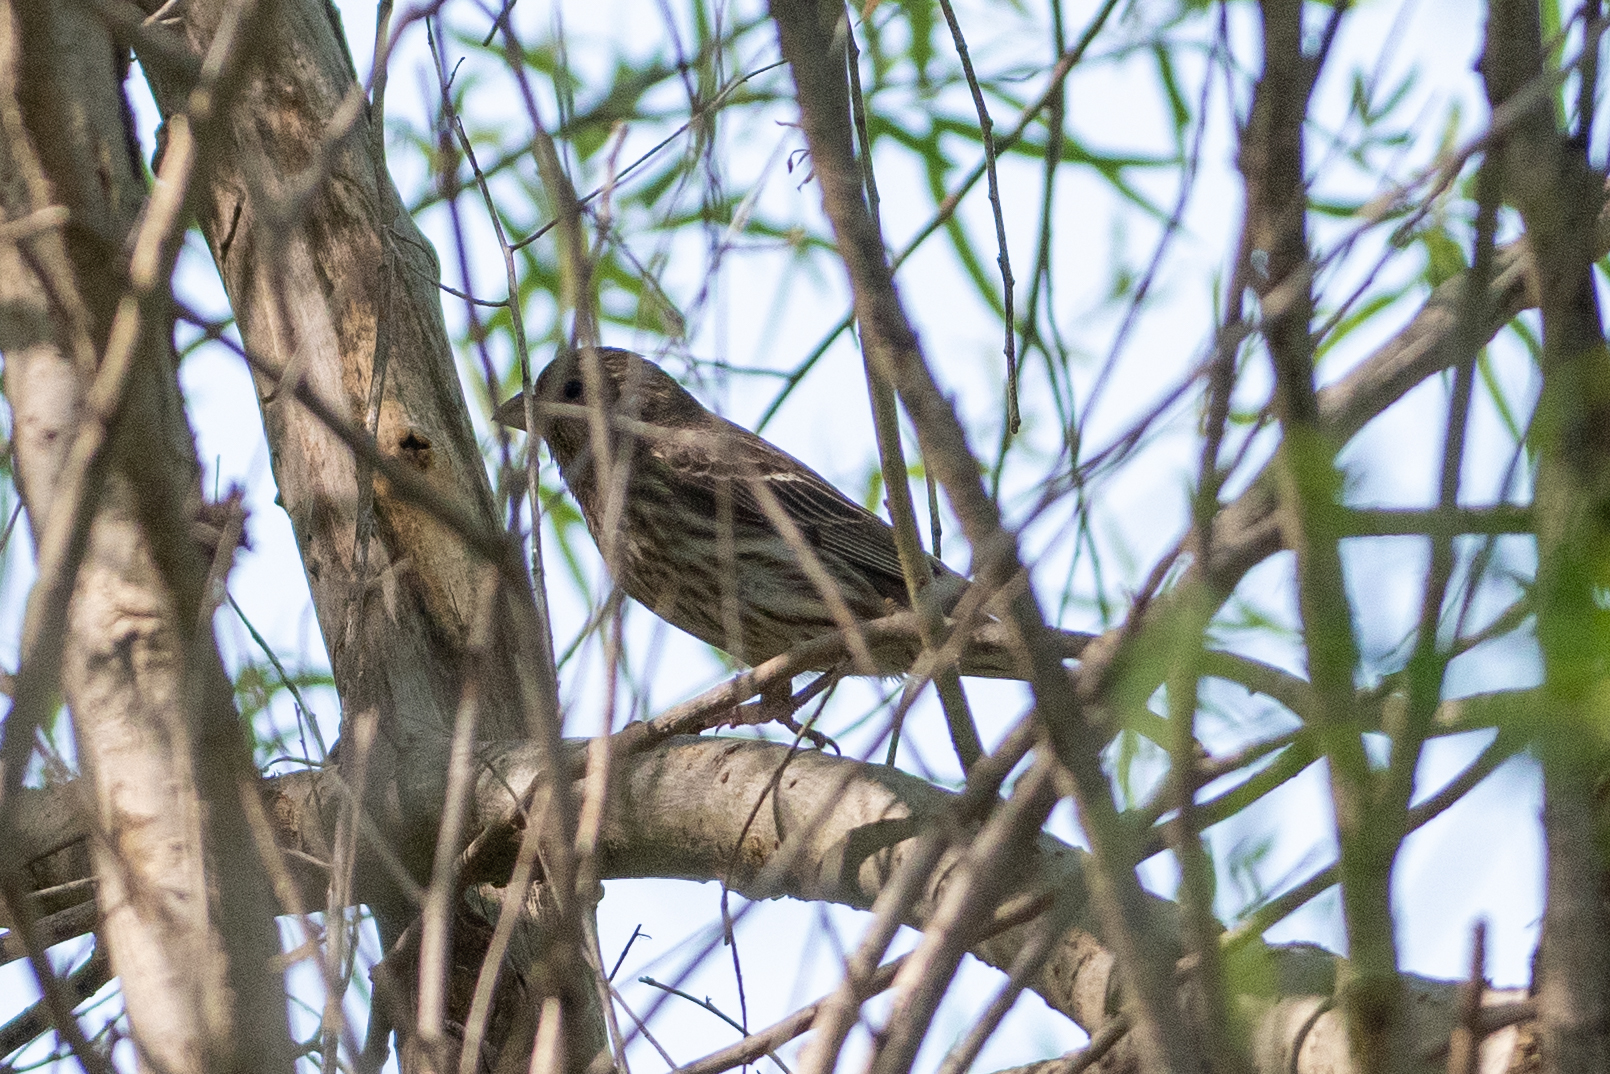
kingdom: Animalia
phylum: Chordata
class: Aves
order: Passeriformes
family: Fringillidae
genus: Haemorhous
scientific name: Haemorhous mexicanus
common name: House finch
